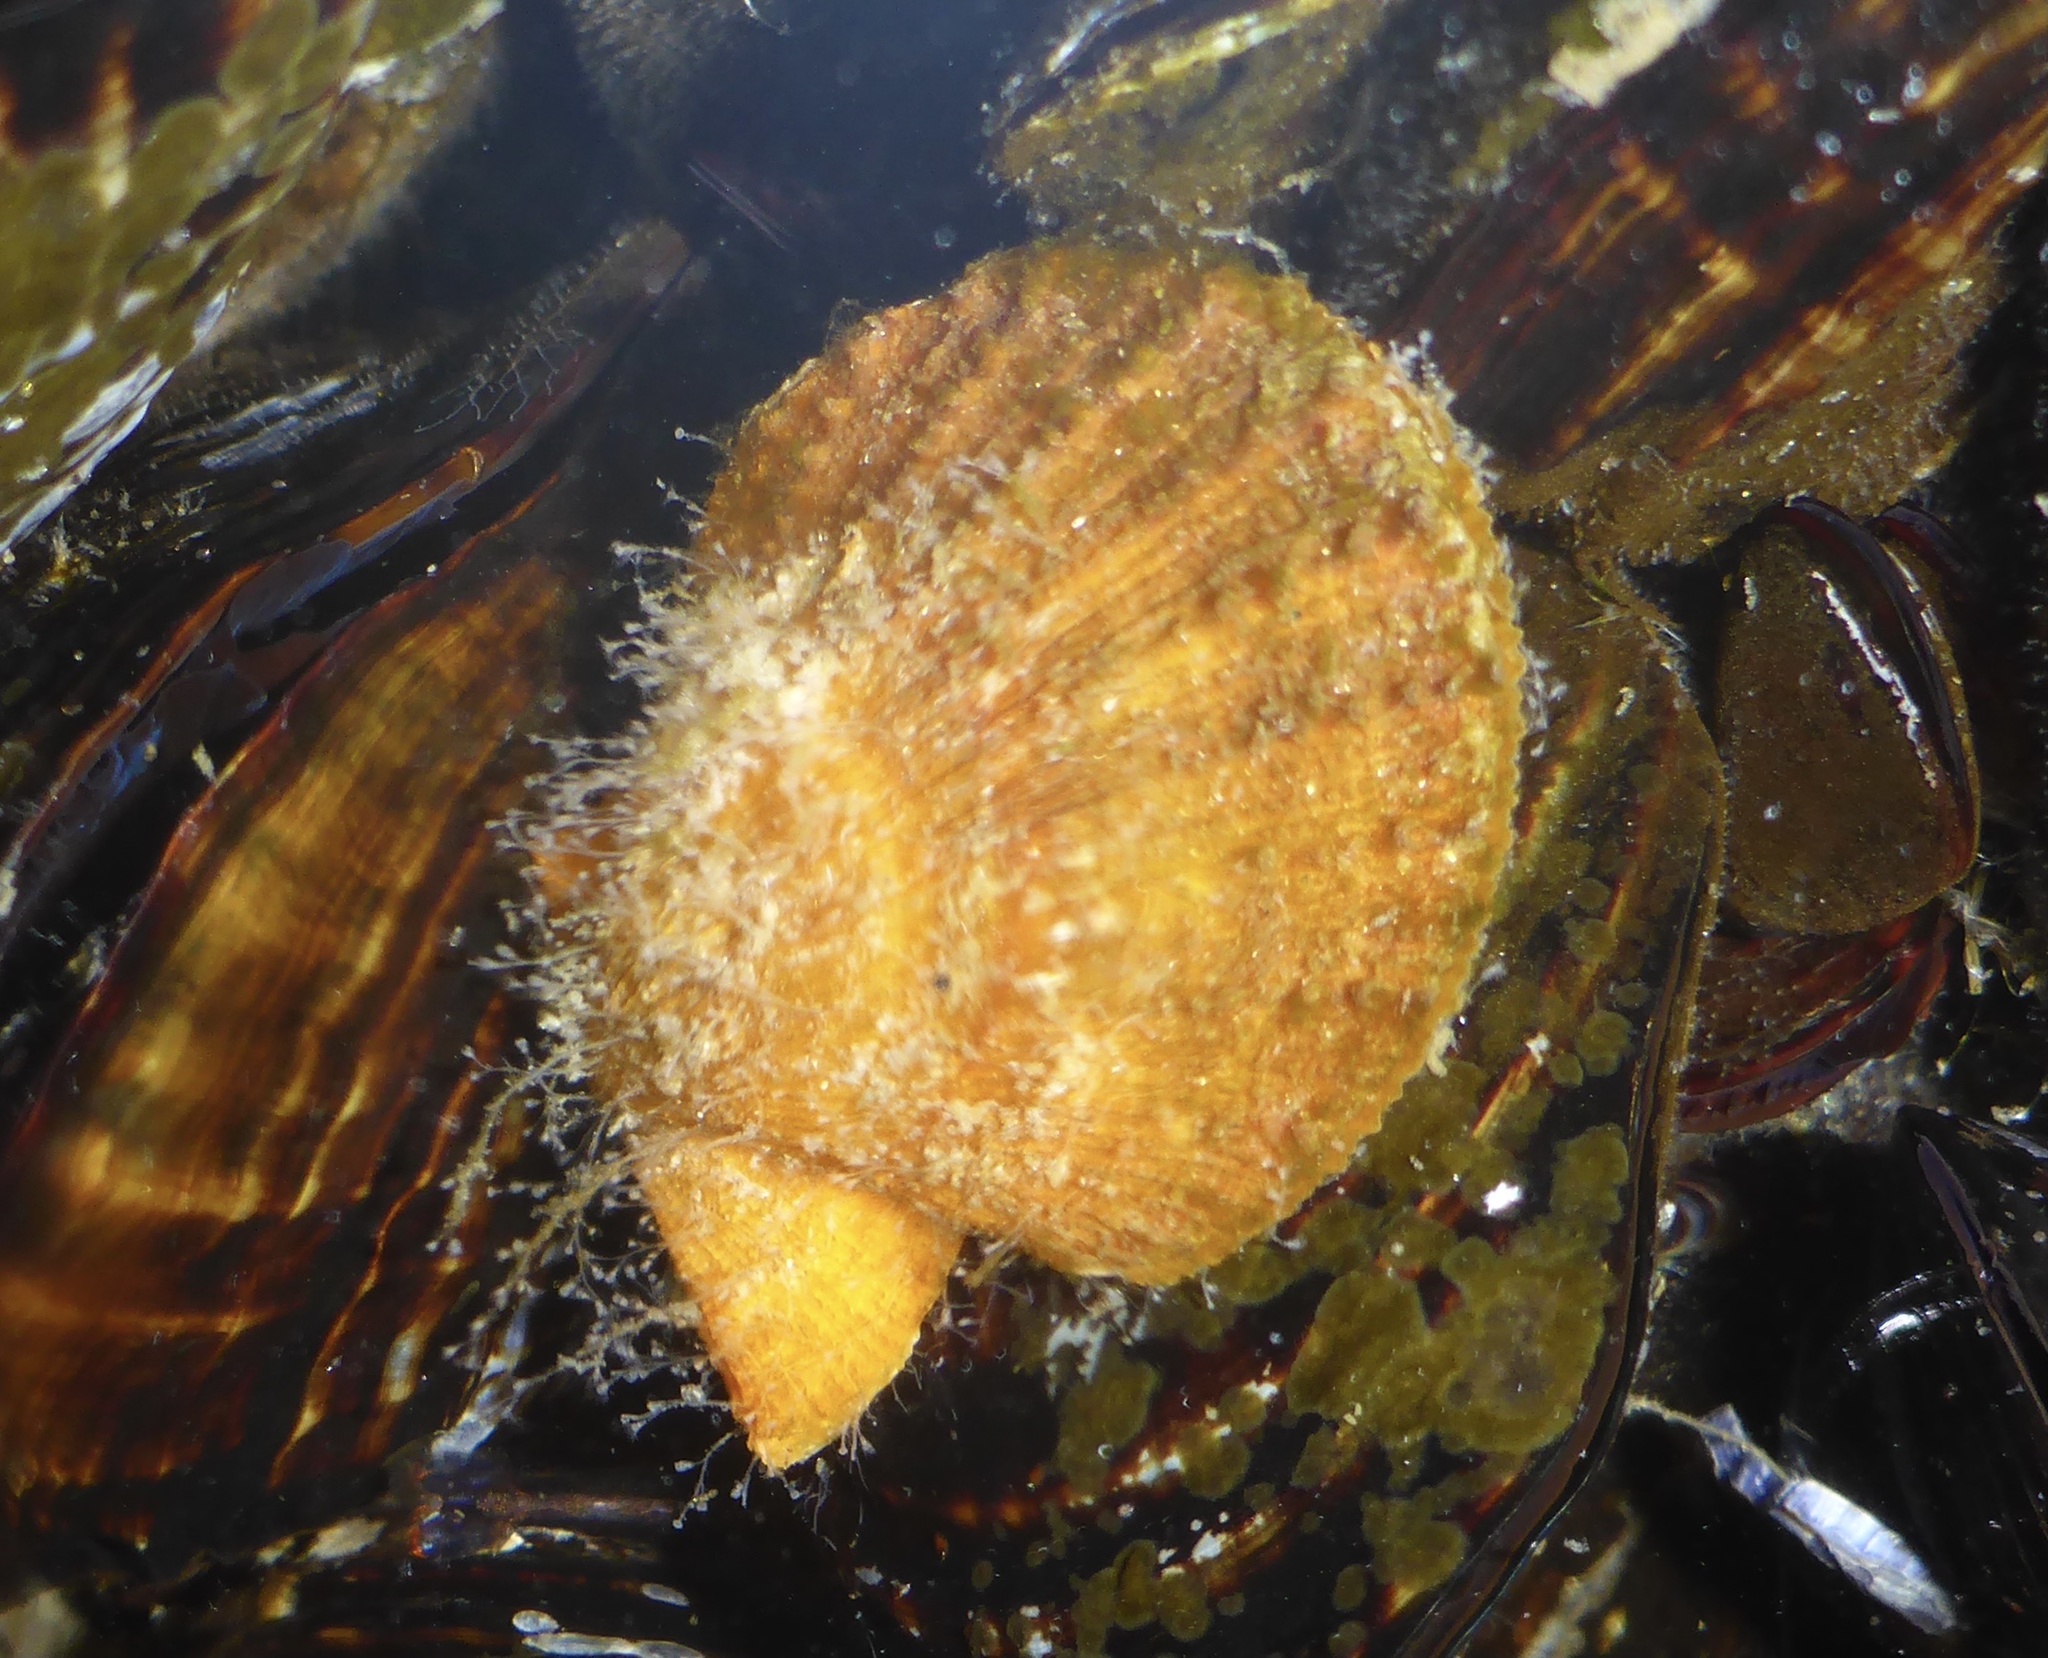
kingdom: Animalia
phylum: Mollusca
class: Bivalvia
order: Pectinida
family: Pectinidae
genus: Crassadoma
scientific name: Crassadoma gigantea
